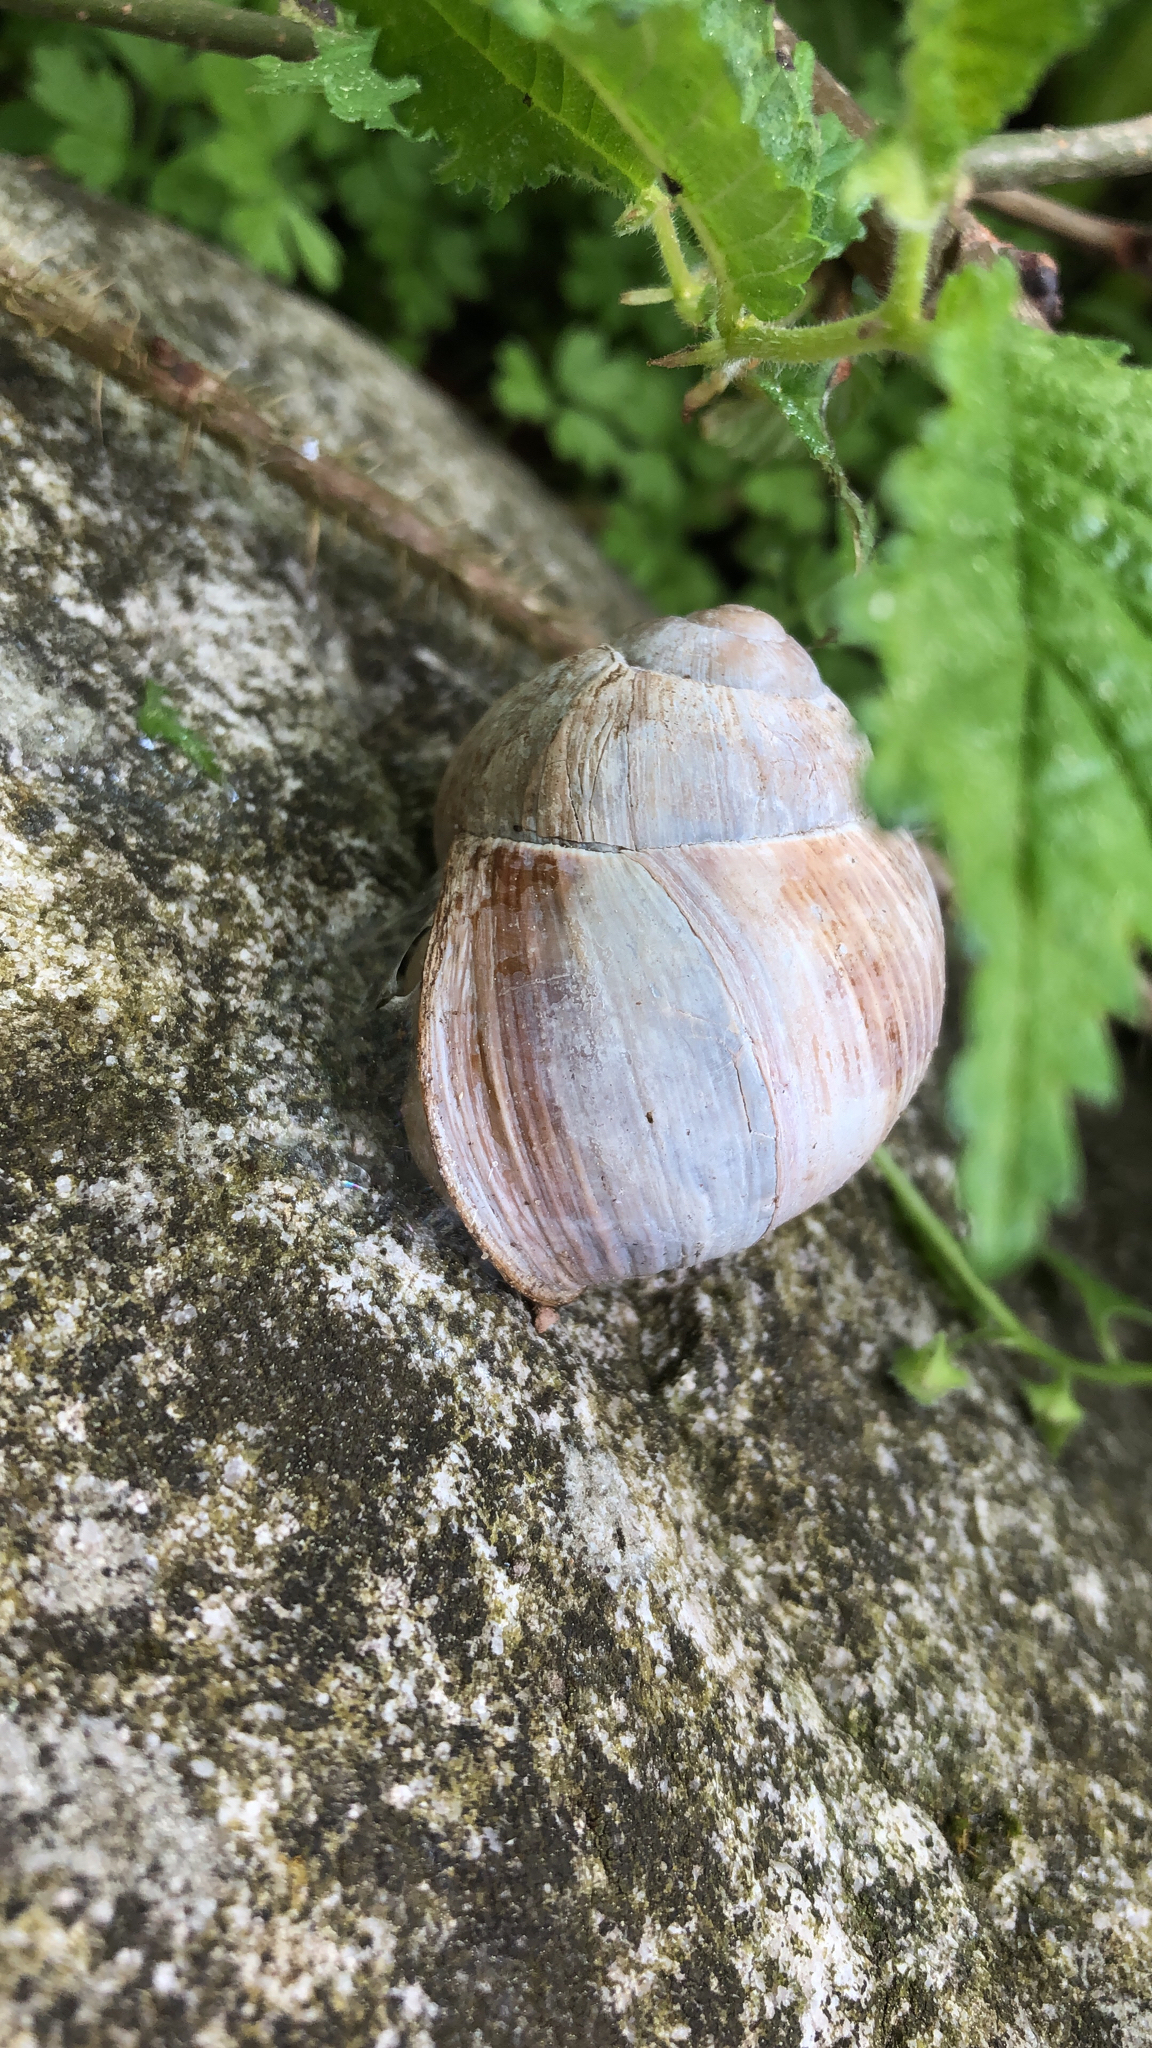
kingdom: Animalia
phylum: Mollusca
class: Gastropoda
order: Stylommatophora
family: Helicidae
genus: Helix
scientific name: Helix pomatia
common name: Roman snail
